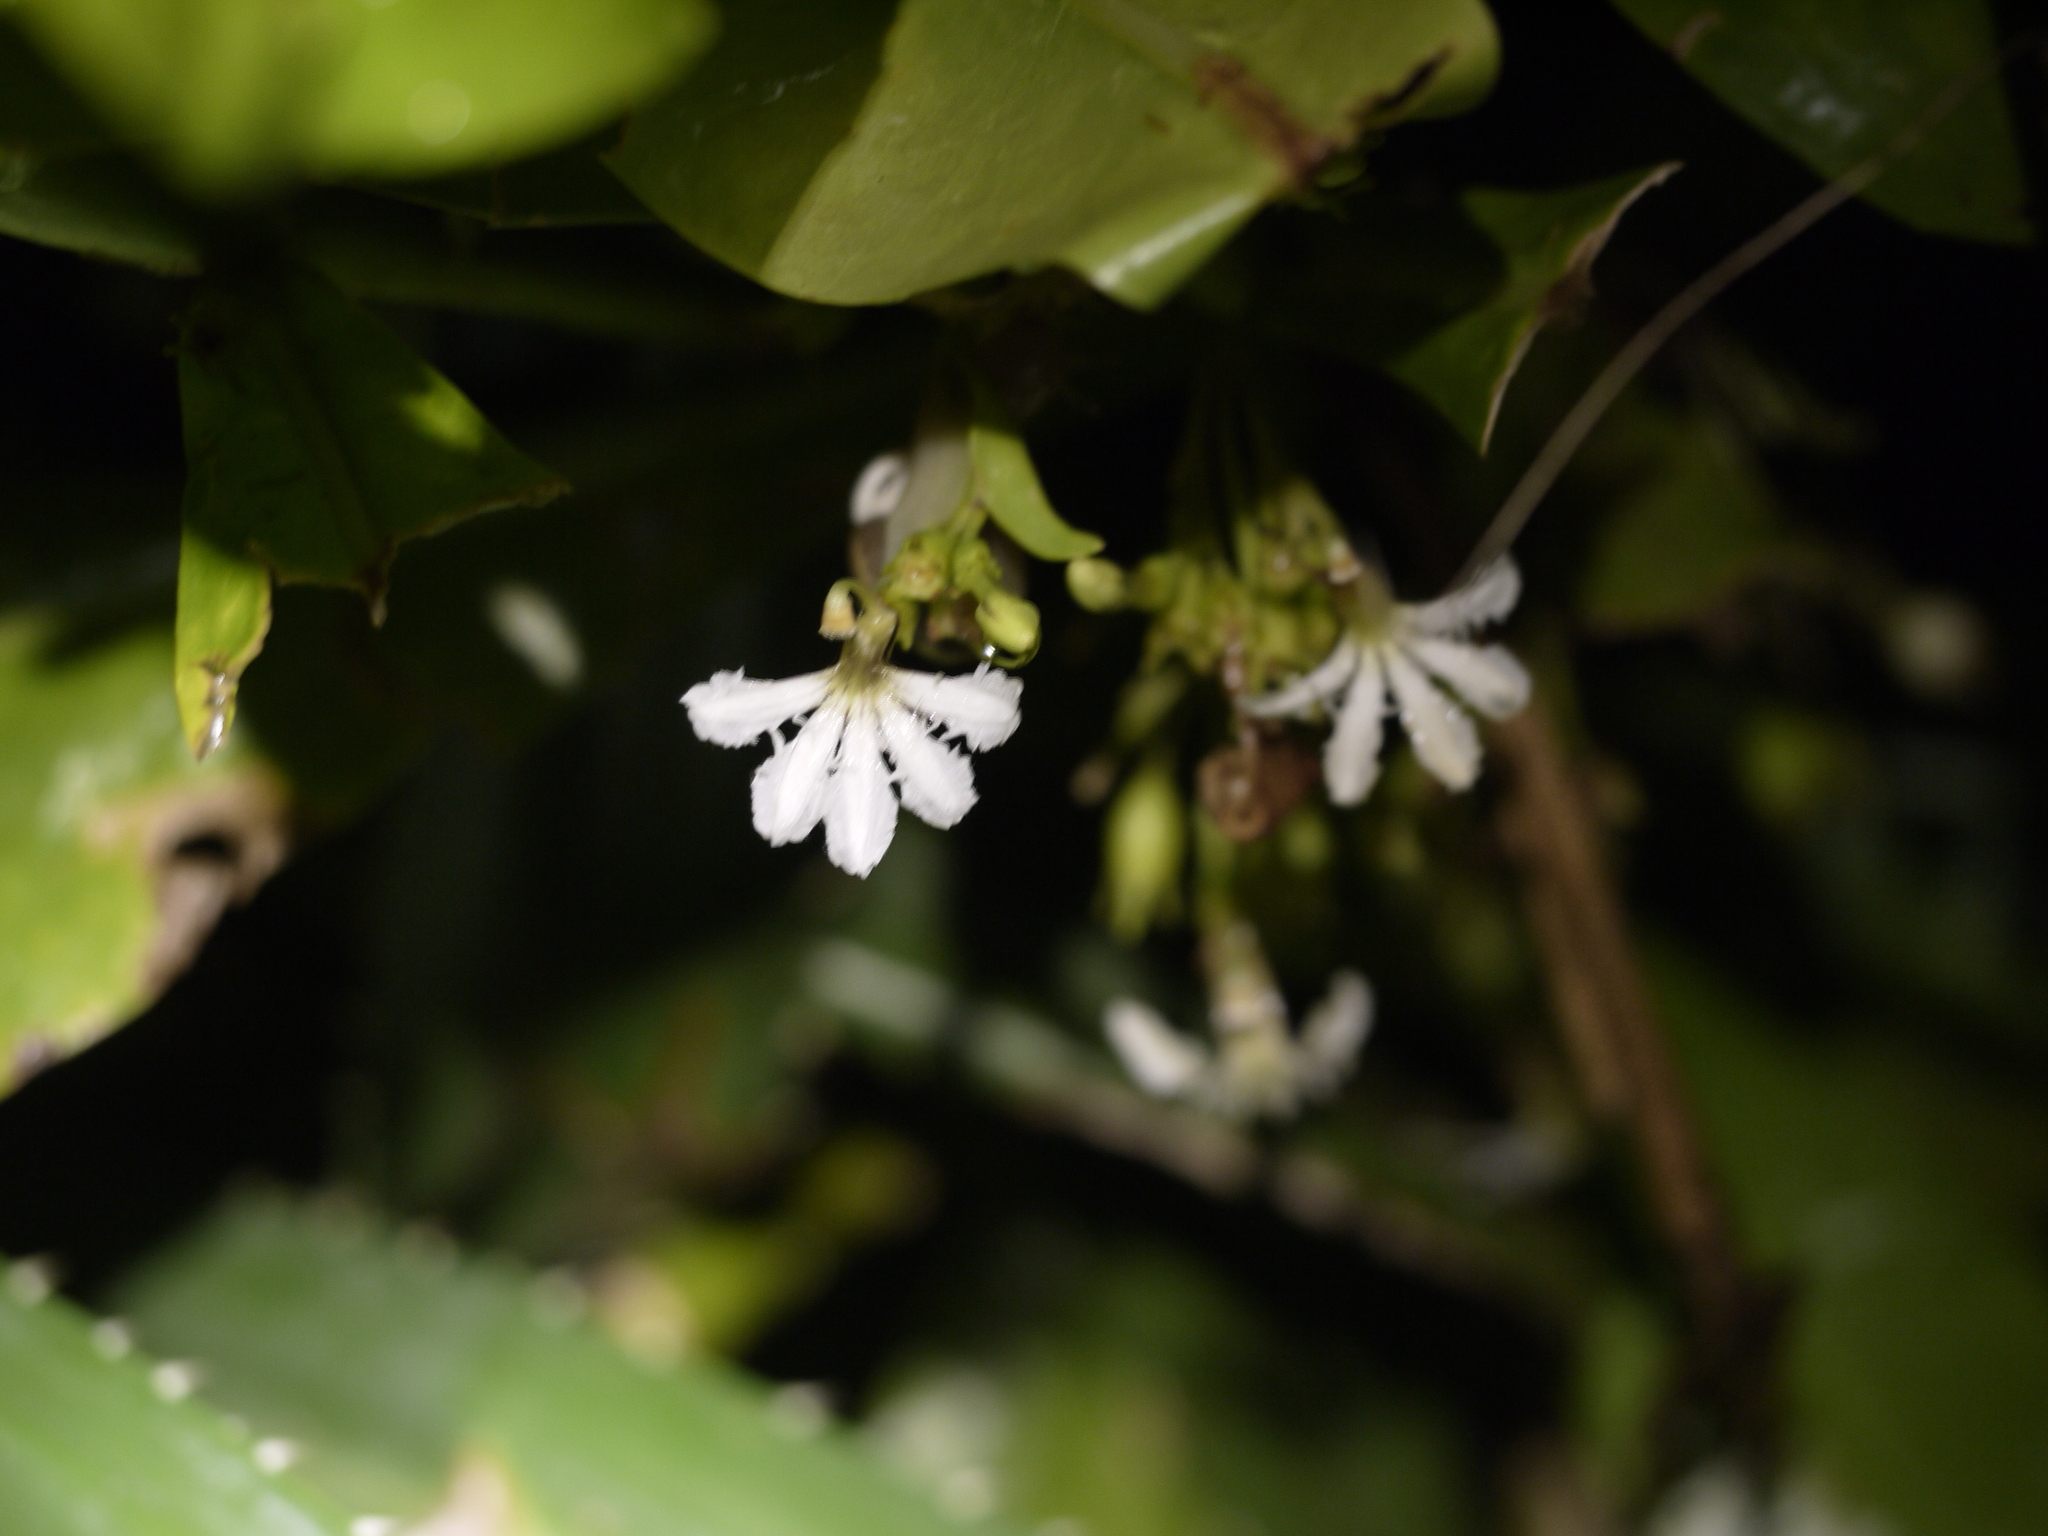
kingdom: Plantae
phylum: Tracheophyta
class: Magnoliopsida
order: Asterales
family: Goodeniaceae
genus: Scaevola
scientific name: Scaevola taccada
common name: Sea lettucetree
